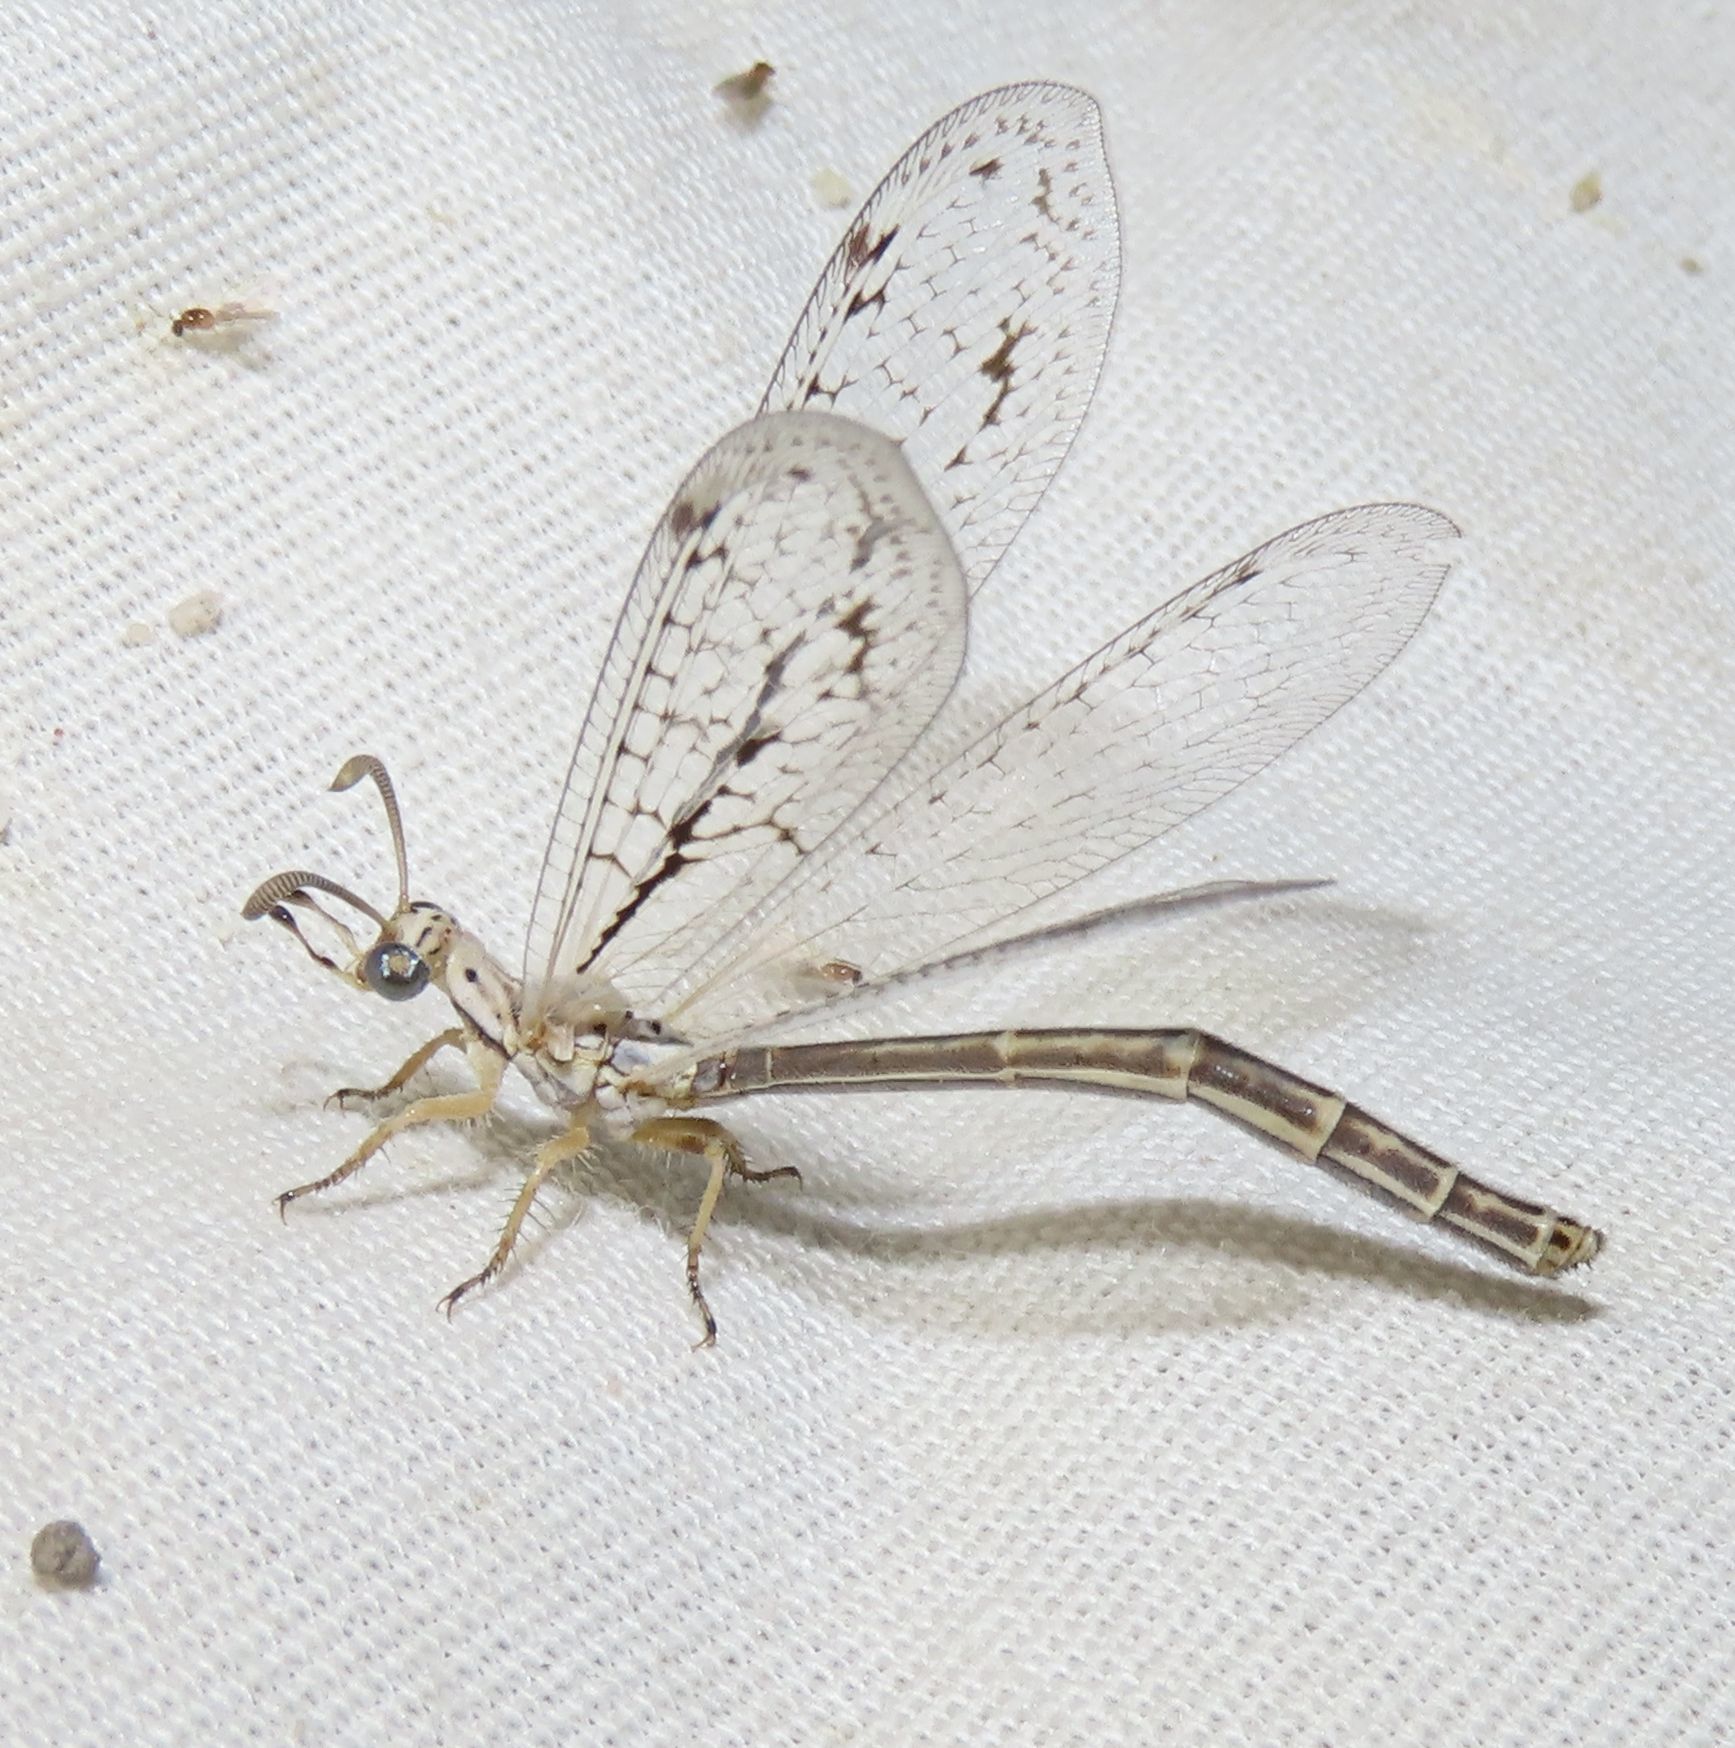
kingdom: Animalia
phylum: Arthropoda
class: Insecta
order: Neuroptera
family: Myrmeleontidae
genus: Scotoleon
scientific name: Scotoleon longipalpis
